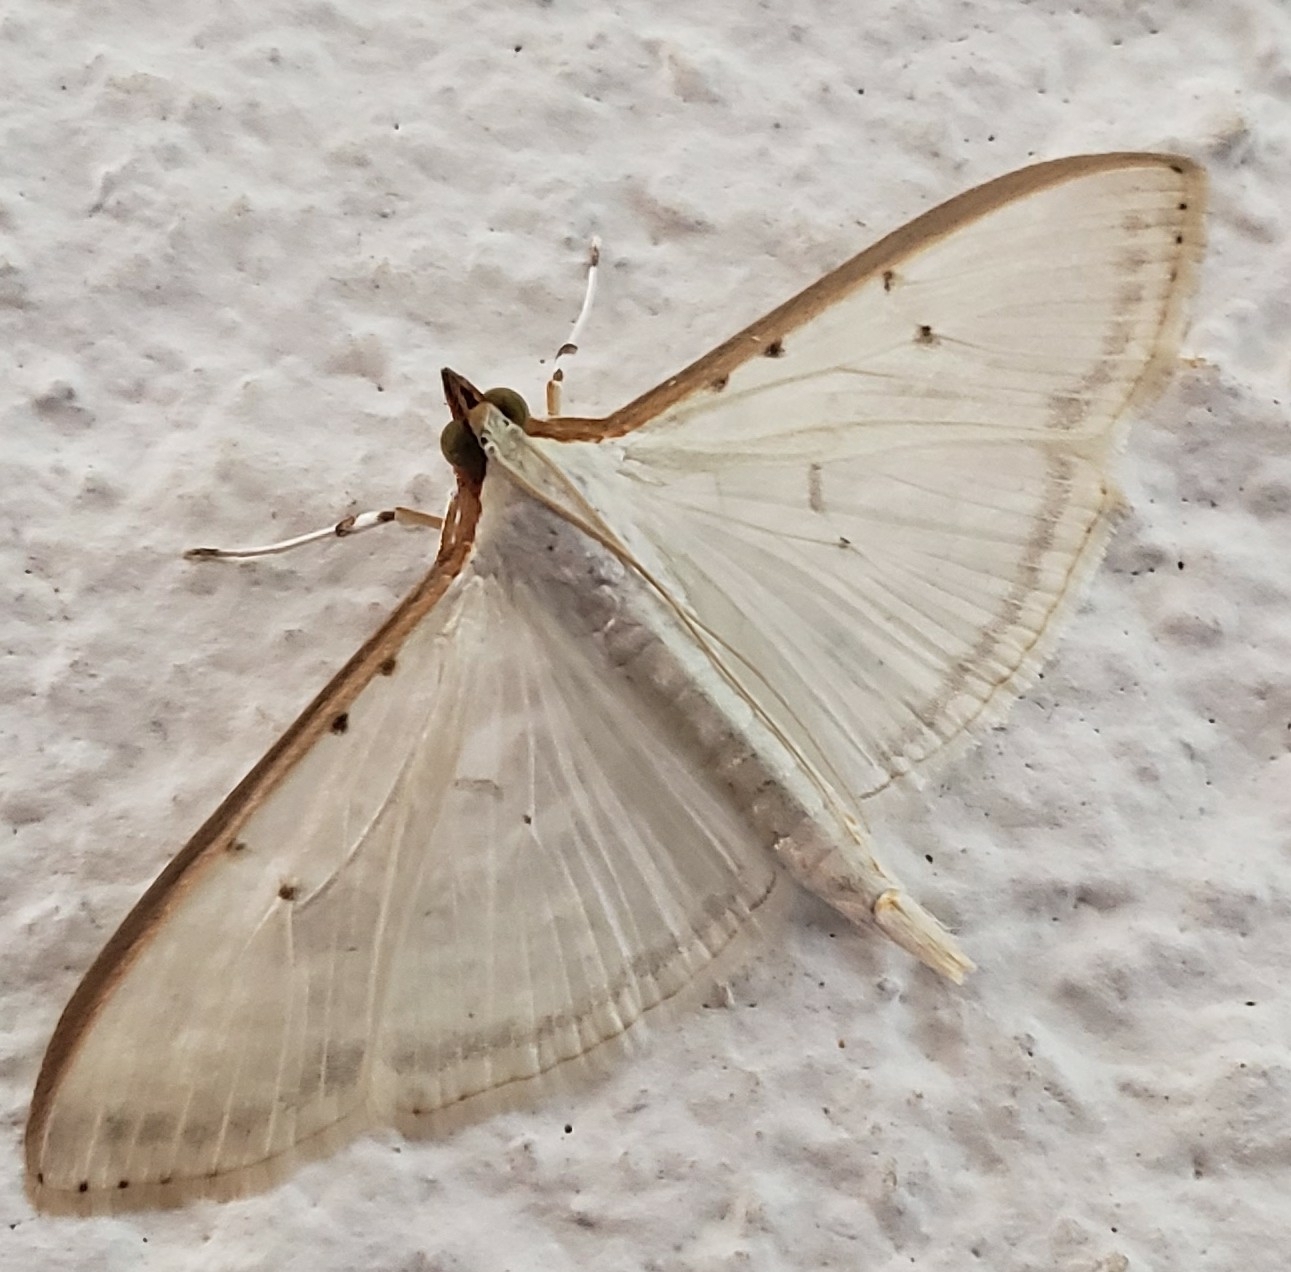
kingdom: Animalia
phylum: Arthropoda
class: Insecta
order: Lepidoptera
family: Crambidae
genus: Palpita
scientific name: Palpita quadristigmalis
